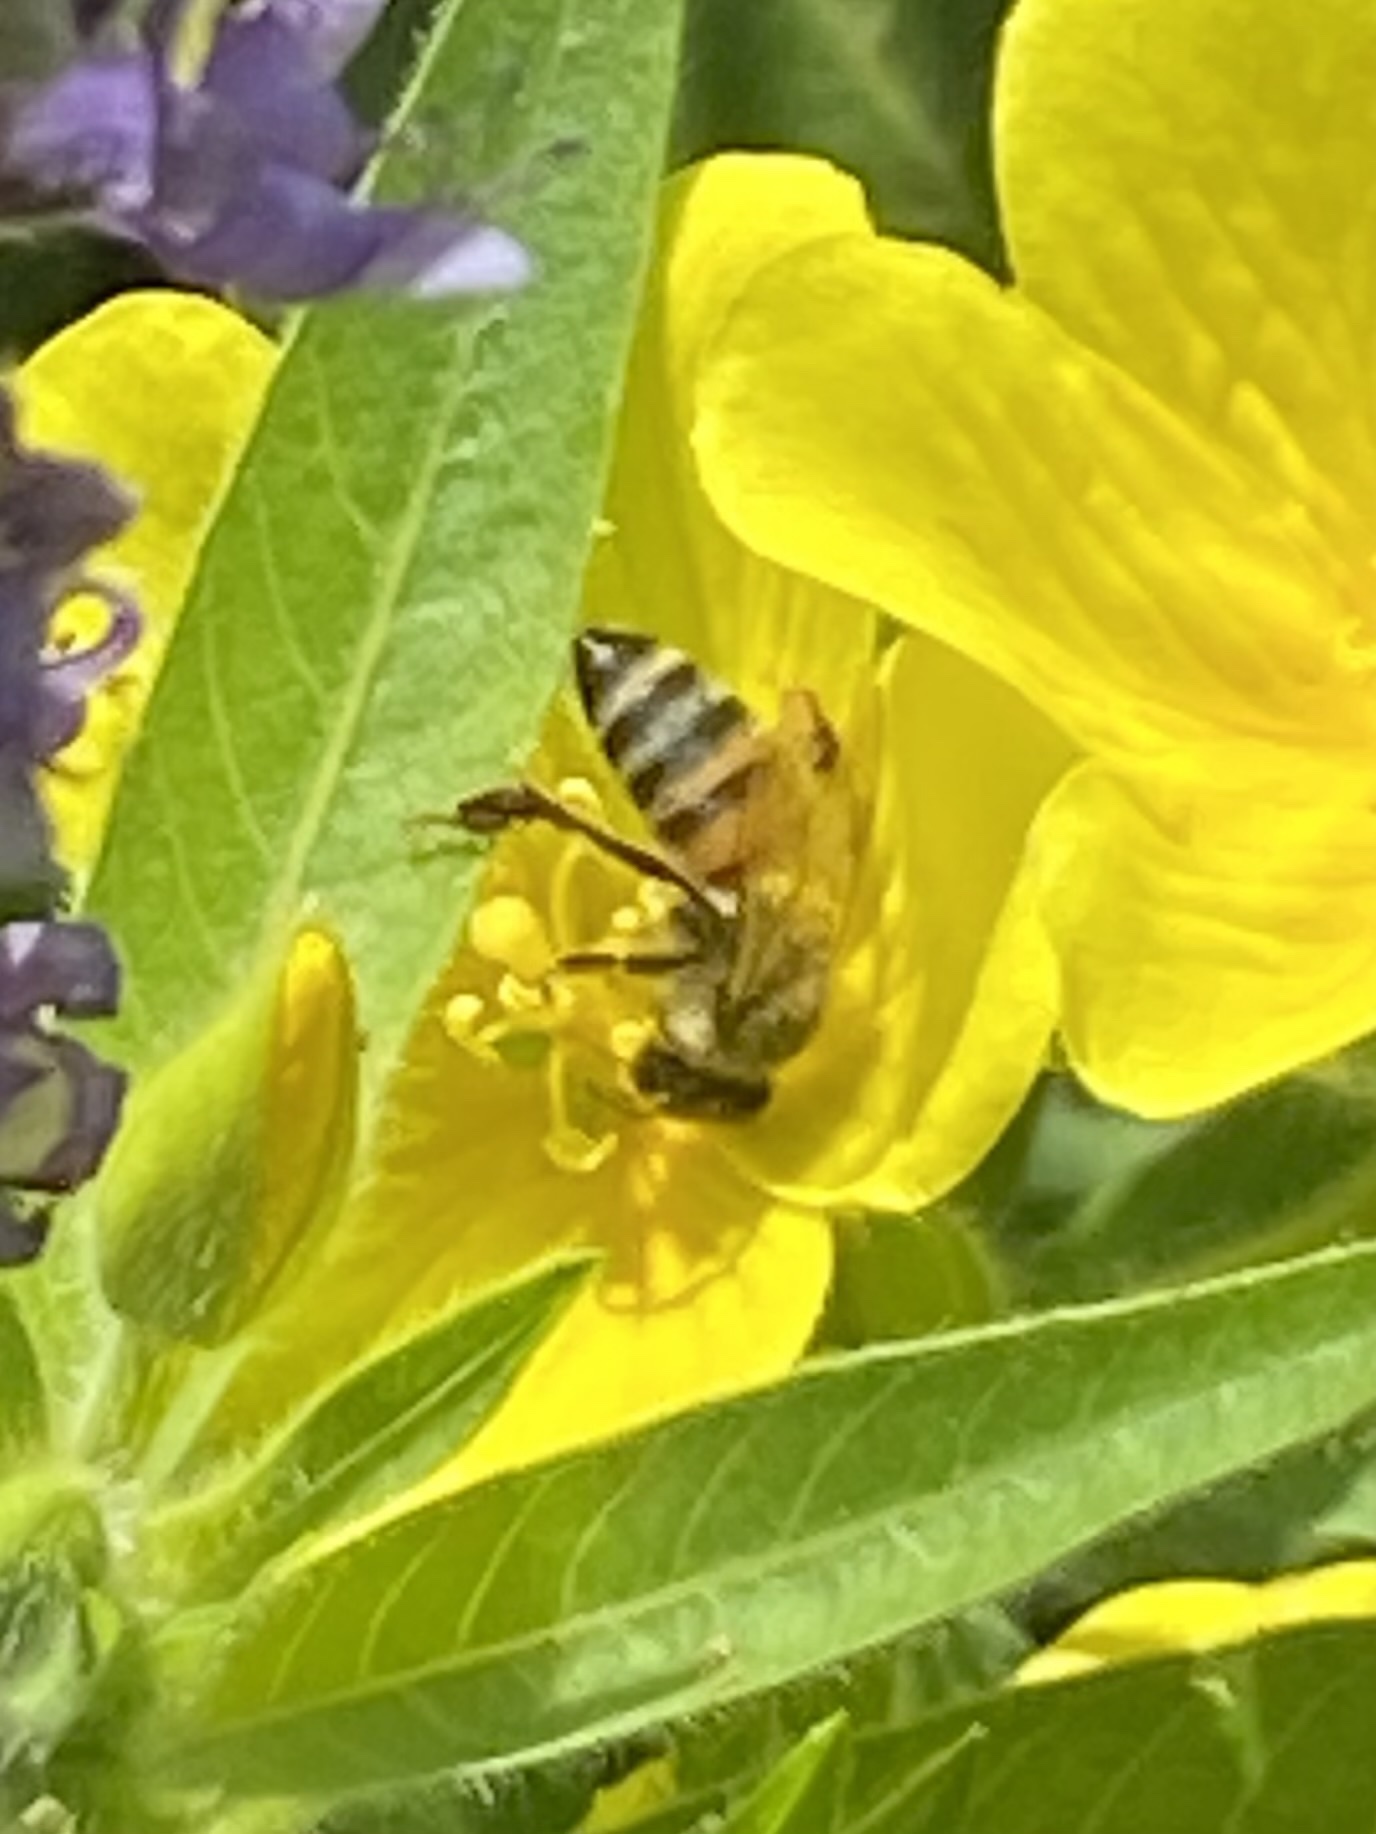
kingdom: Animalia
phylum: Arthropoda
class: Insecta
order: Hymenoptera
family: Apidae
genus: Apis
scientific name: Apis mellifera
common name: Honey bee
